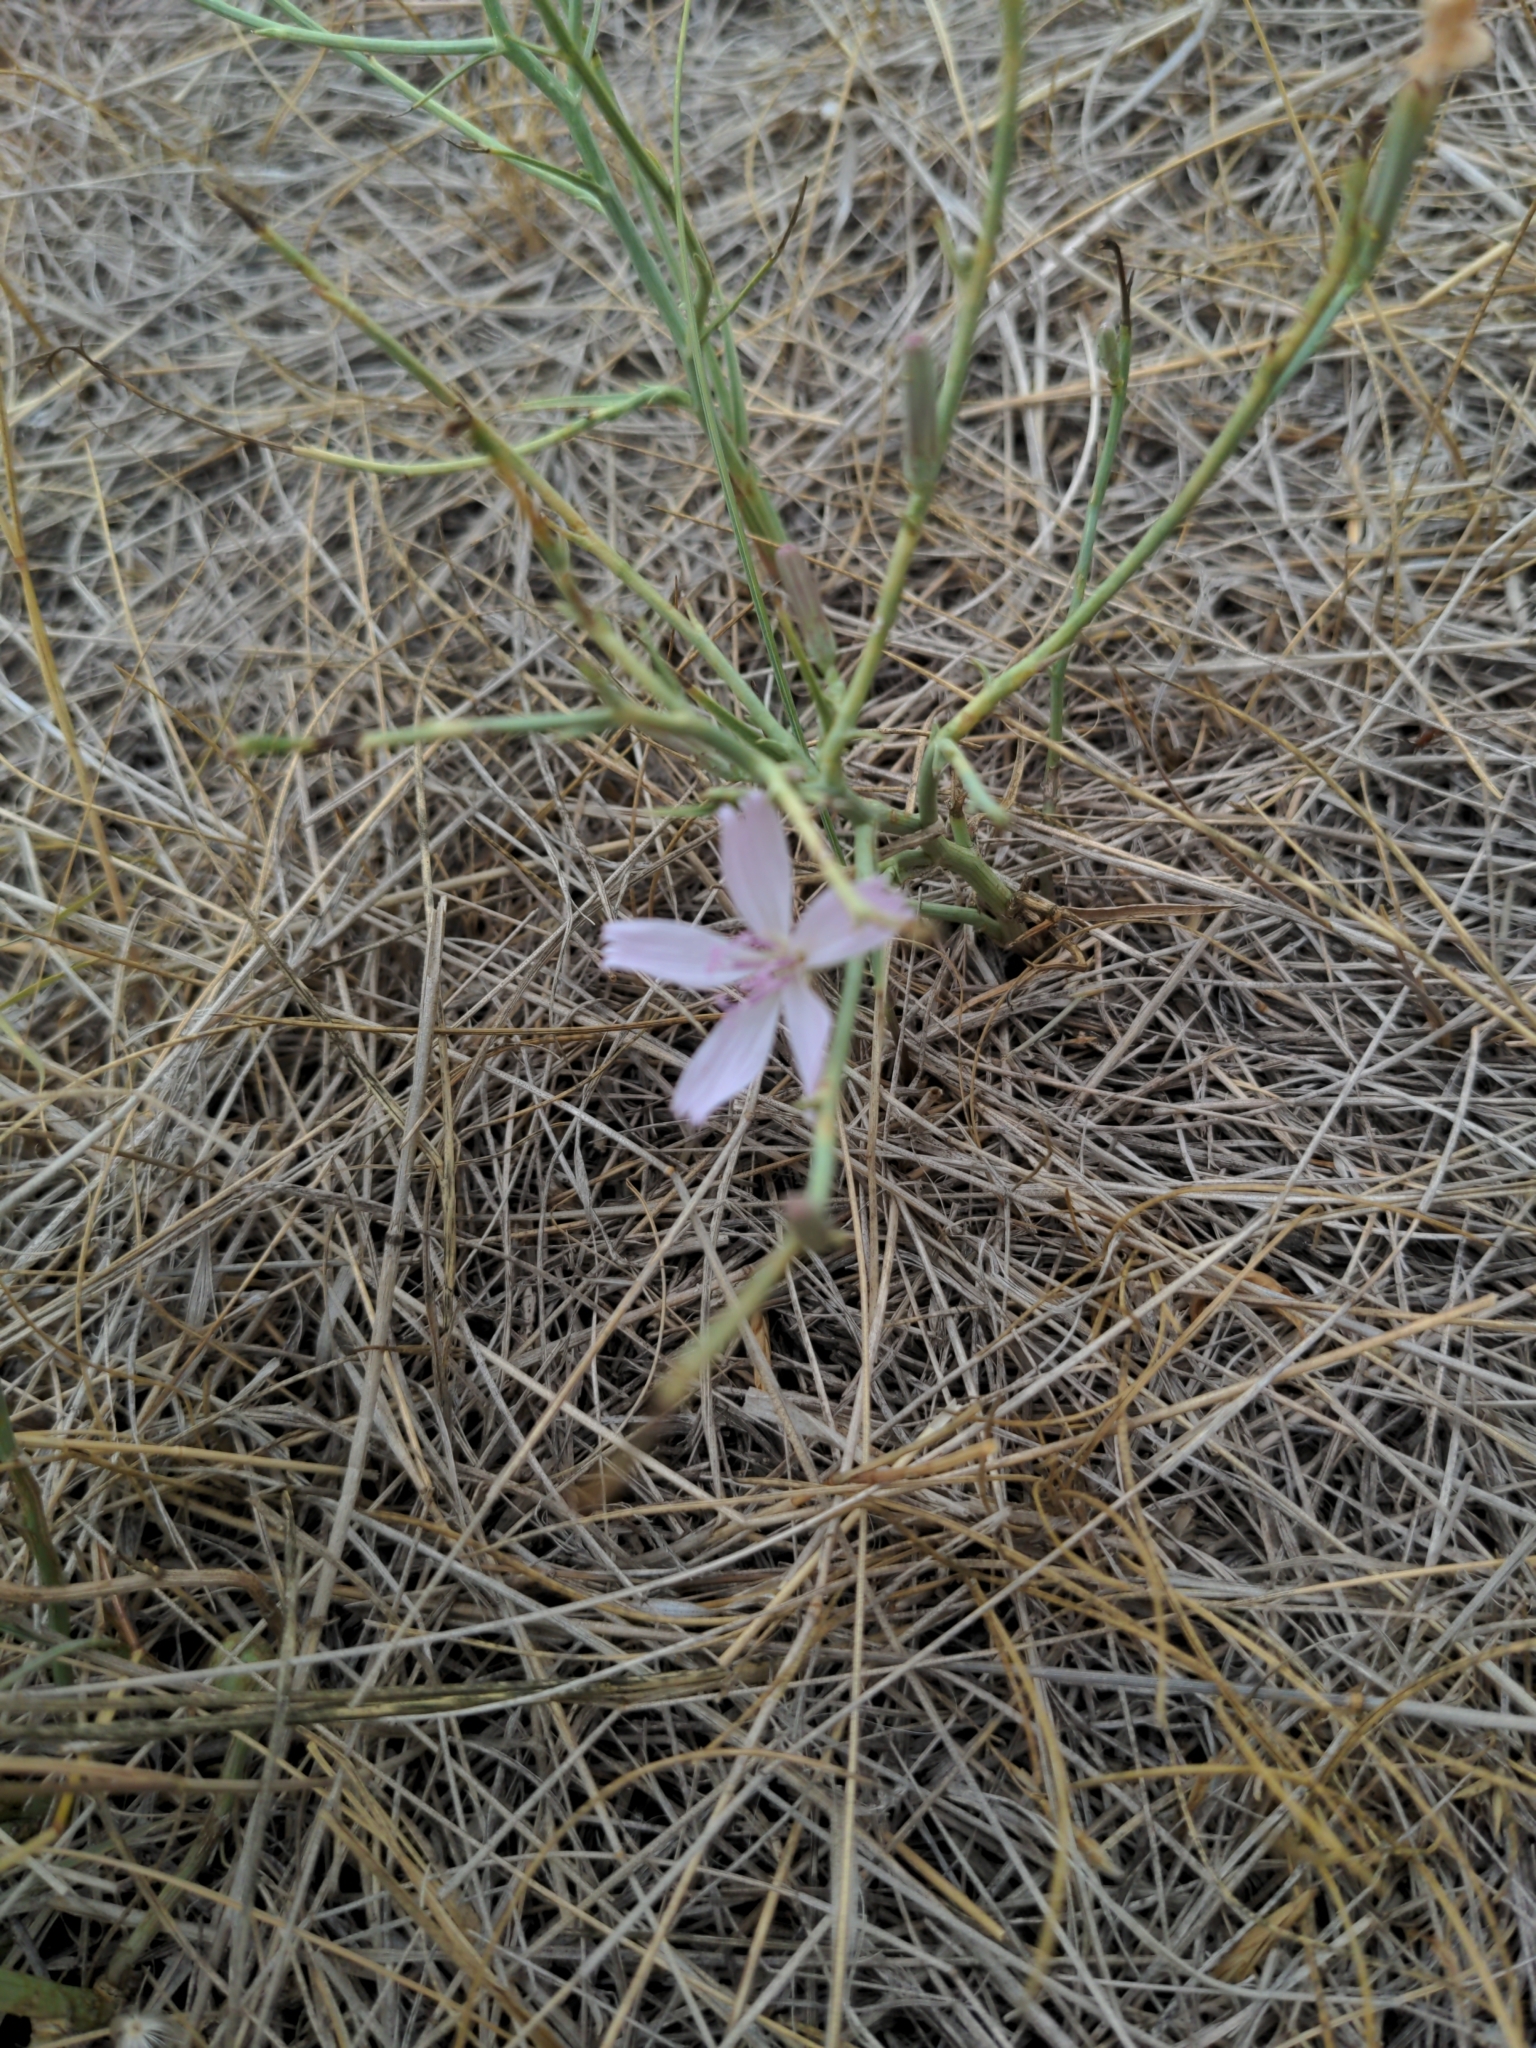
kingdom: Plantae
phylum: Tracheophyta
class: Magnoliopsida
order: Asterales
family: Asteraceae
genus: Lygodesmia
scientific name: Lygodesmia juncea
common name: Common skeletonweed
